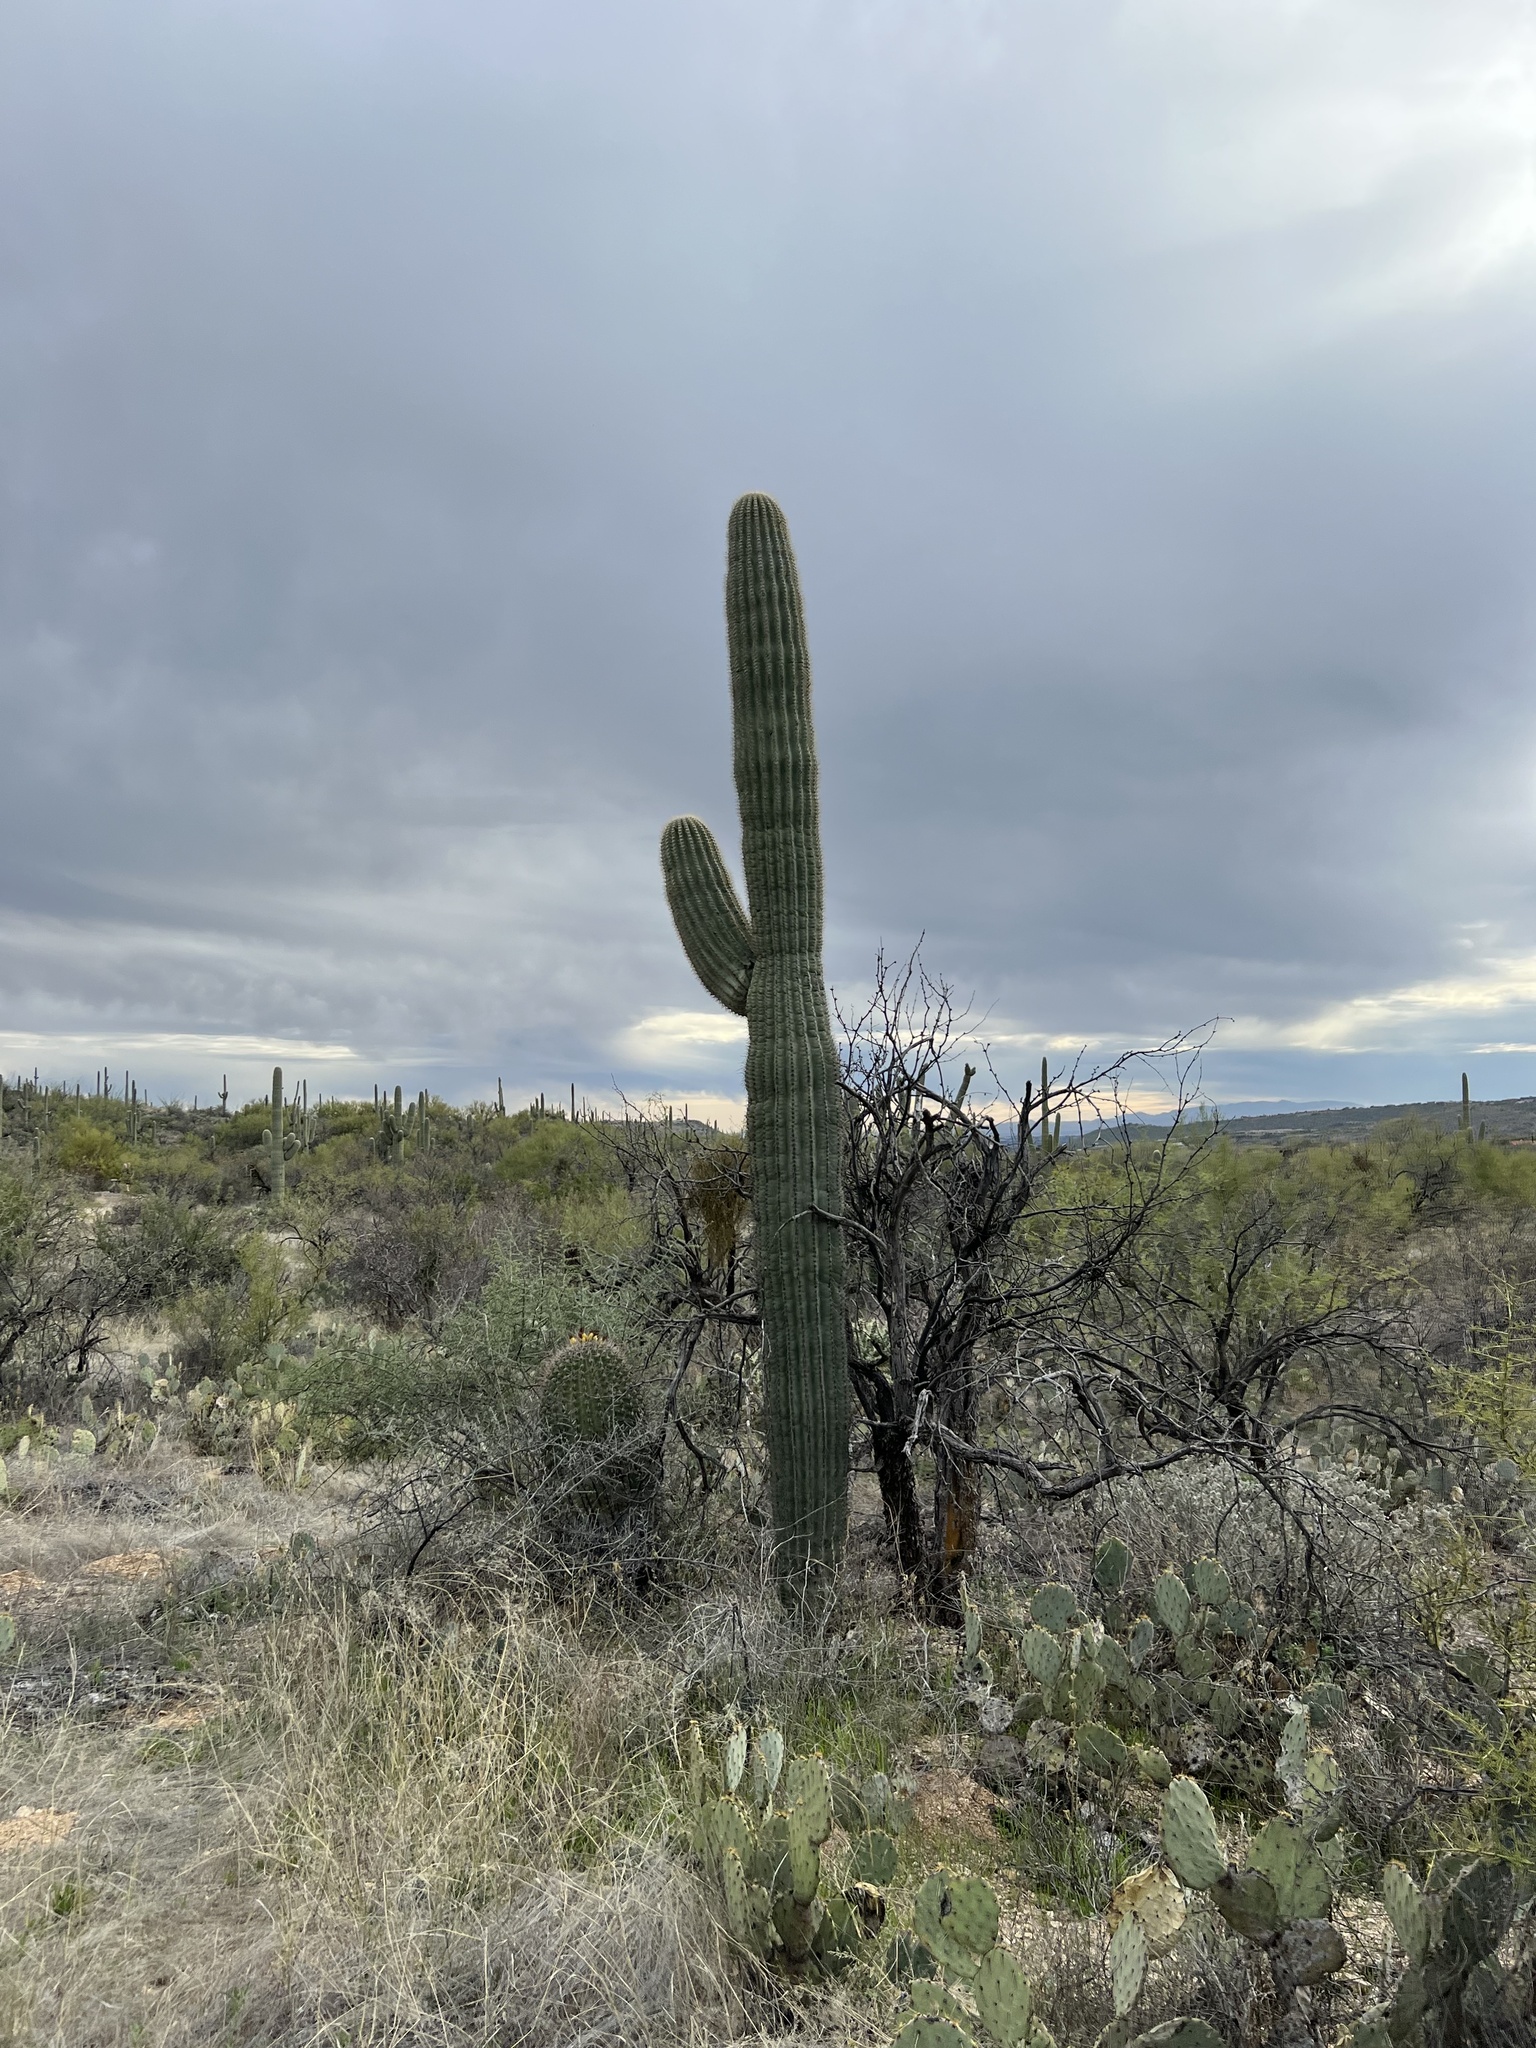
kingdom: Plantae
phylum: Tracheophyta
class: Magnoliopsida
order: Caryophyllales
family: Cactaceae
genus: Carnegiea
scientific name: Carnegiea gigantea
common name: Saguaro
